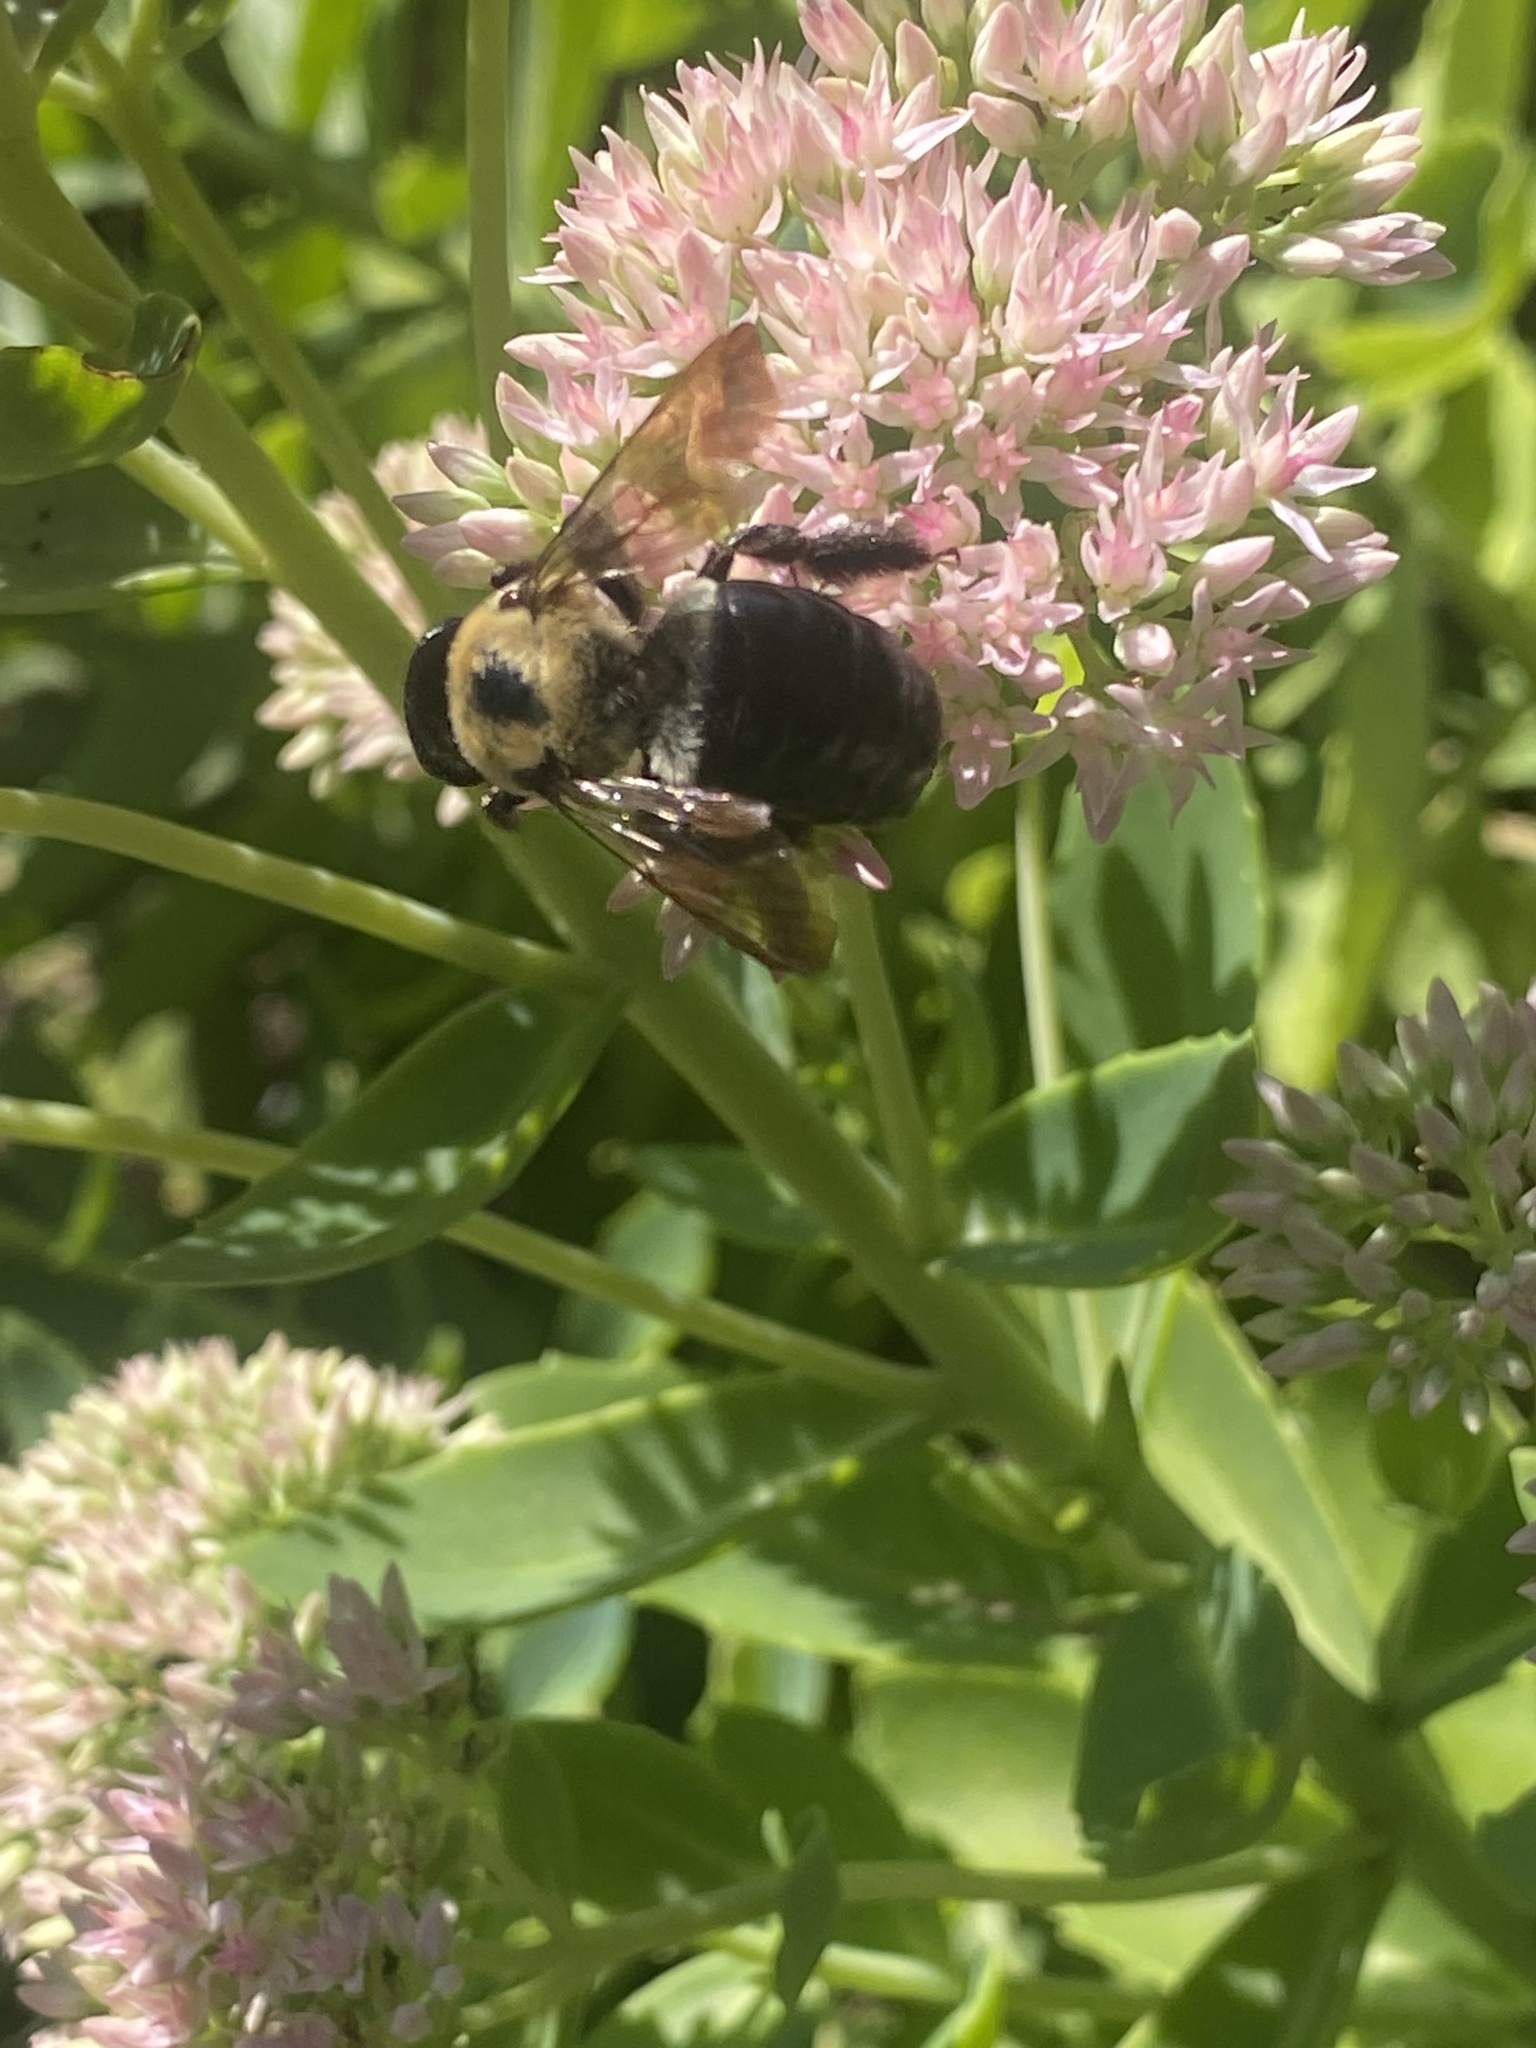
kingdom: Animalia
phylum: Arthropoda
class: Insecta
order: Hymenoptera
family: Apidae
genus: Xylocopa
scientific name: Xylocopa virginica
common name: Carpenter bee
